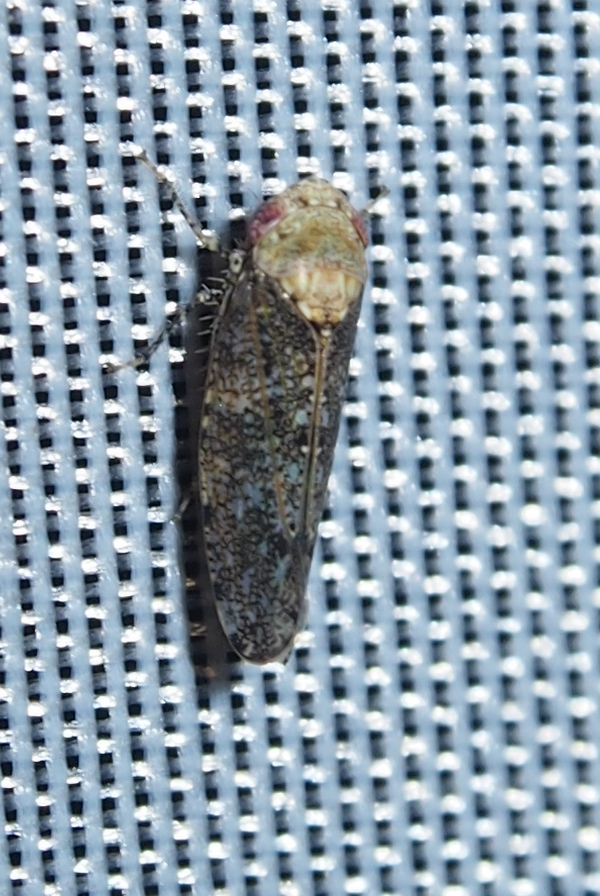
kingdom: Animalia
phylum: Arthropoda
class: Insecta
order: Hemiptera
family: Cicadellidae
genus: Paraphlepsius
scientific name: Paraphlepsius collitus
